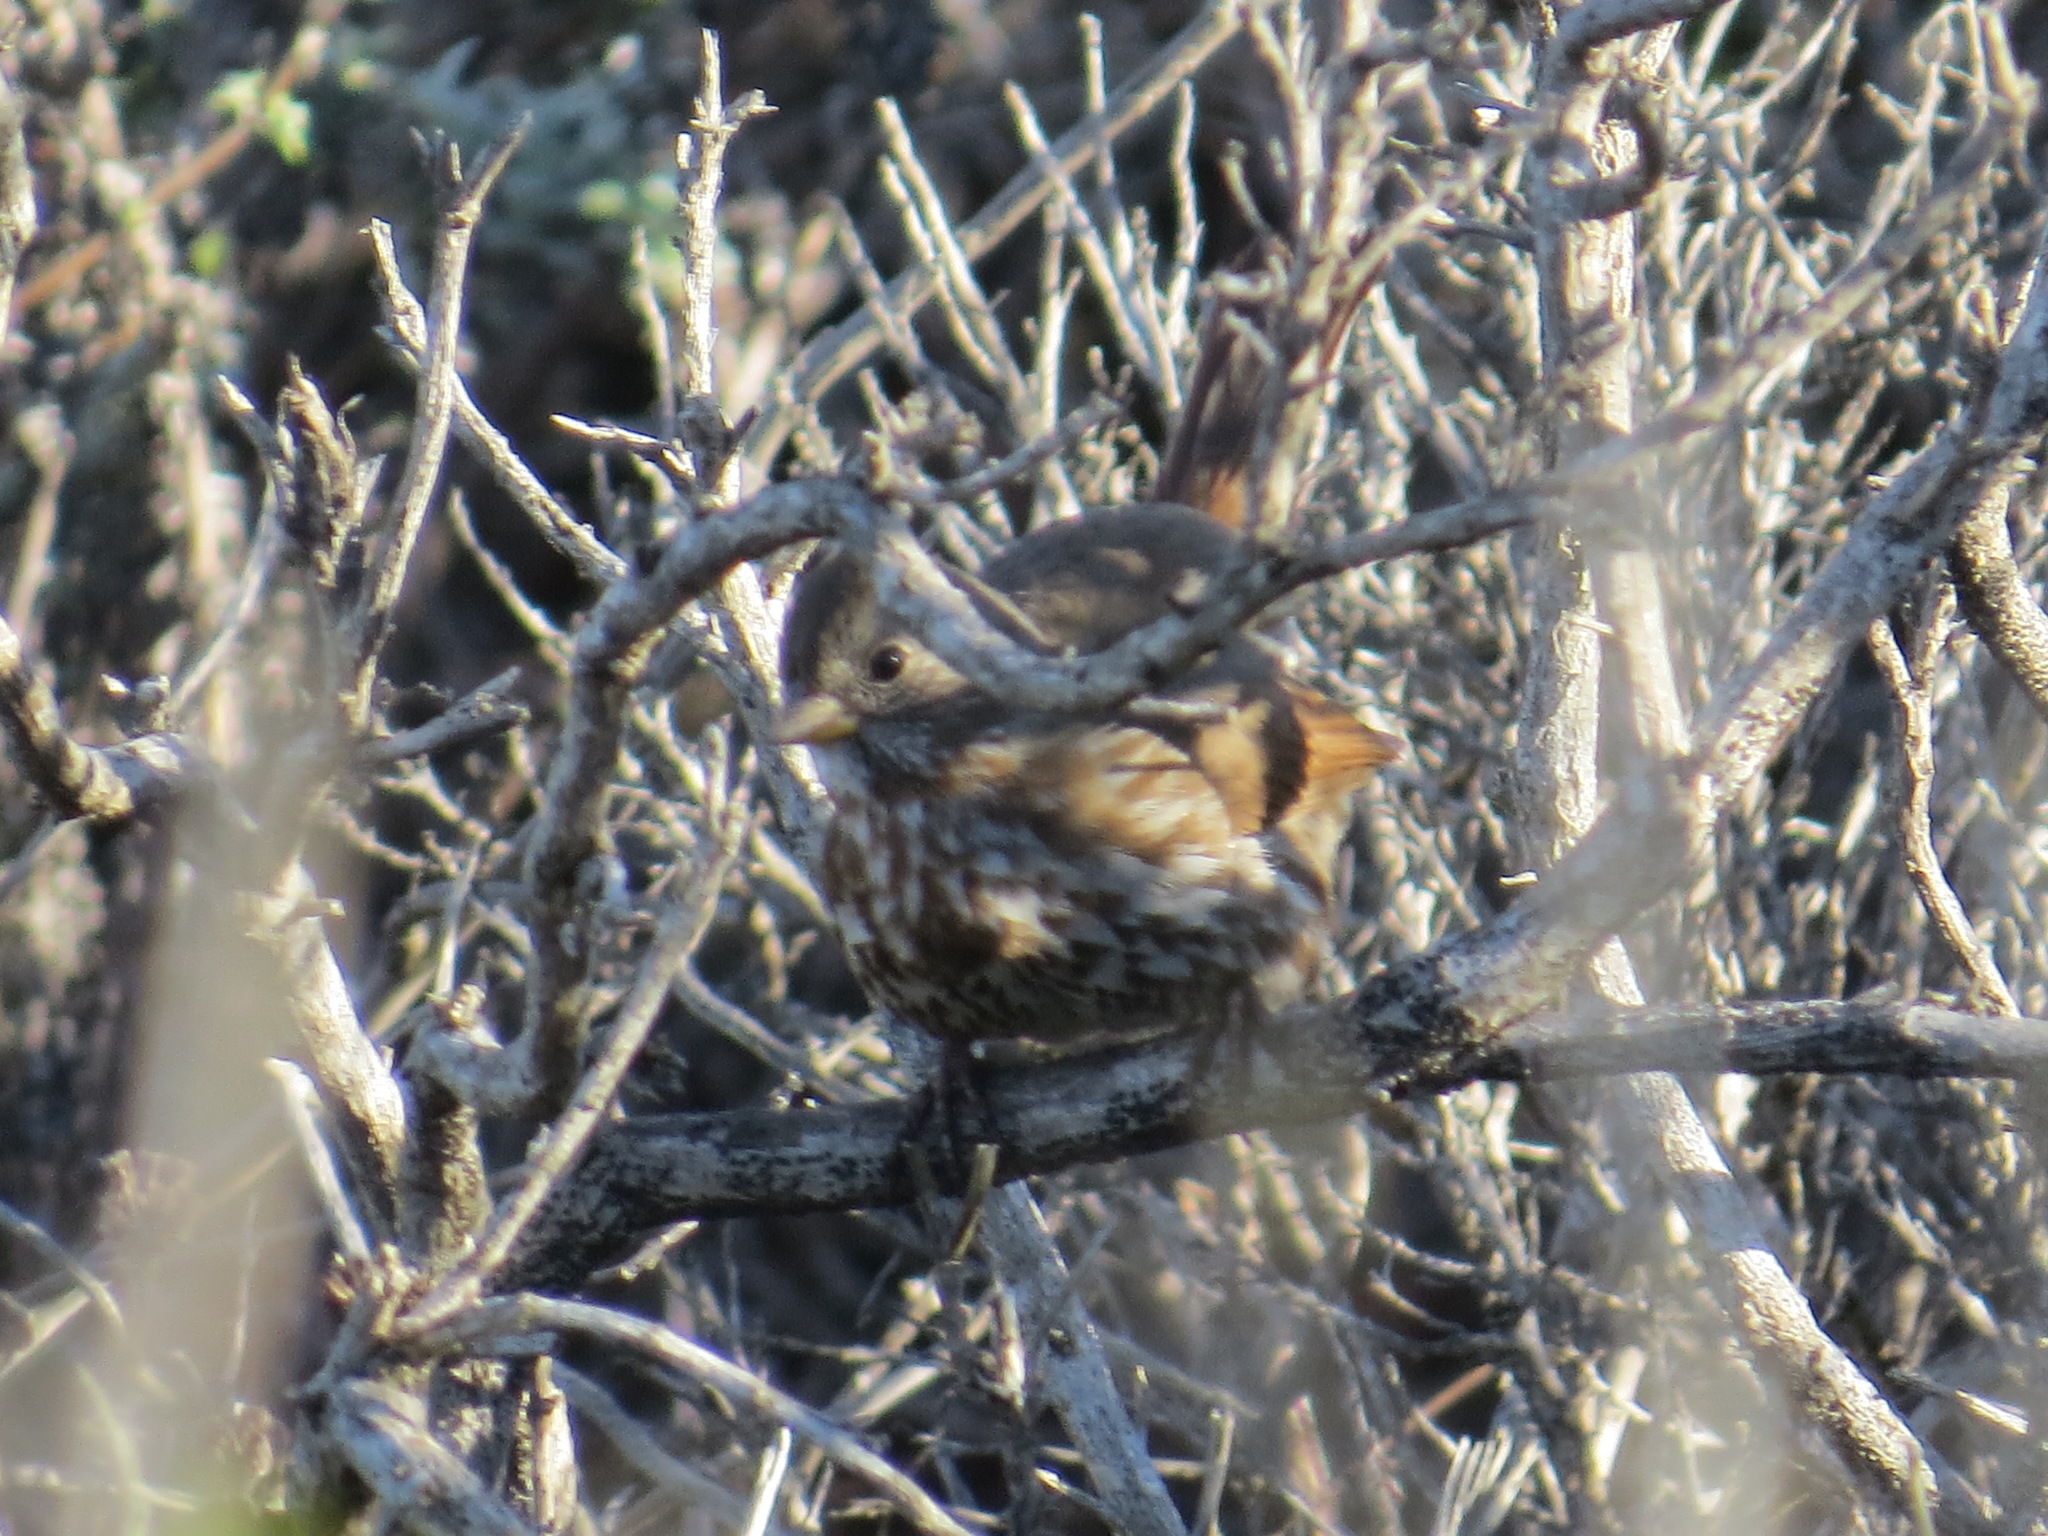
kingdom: Animalia
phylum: Chordata
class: Aves
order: Passeriformes
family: Passerellidae
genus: Passerella
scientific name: Passerella iliaca
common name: Fox sparrow
